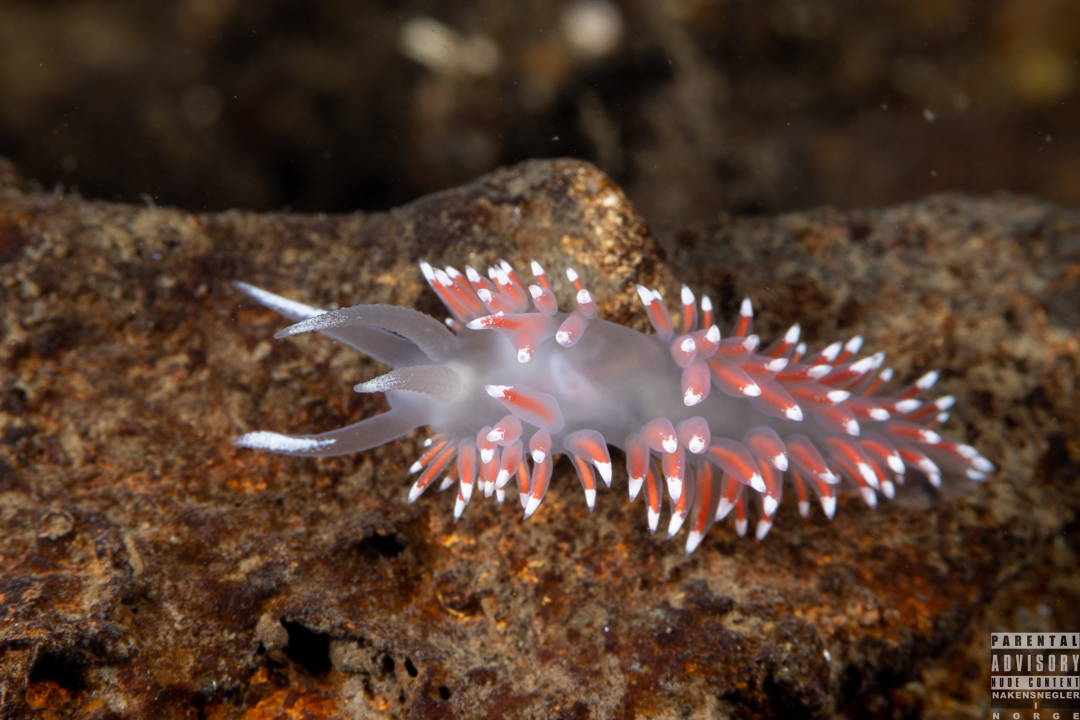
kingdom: Animalia
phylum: Mollusca
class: Gastropoda
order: Nudibranchia
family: Coryphellidae
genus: Coryphella
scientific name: Coryphella browni
